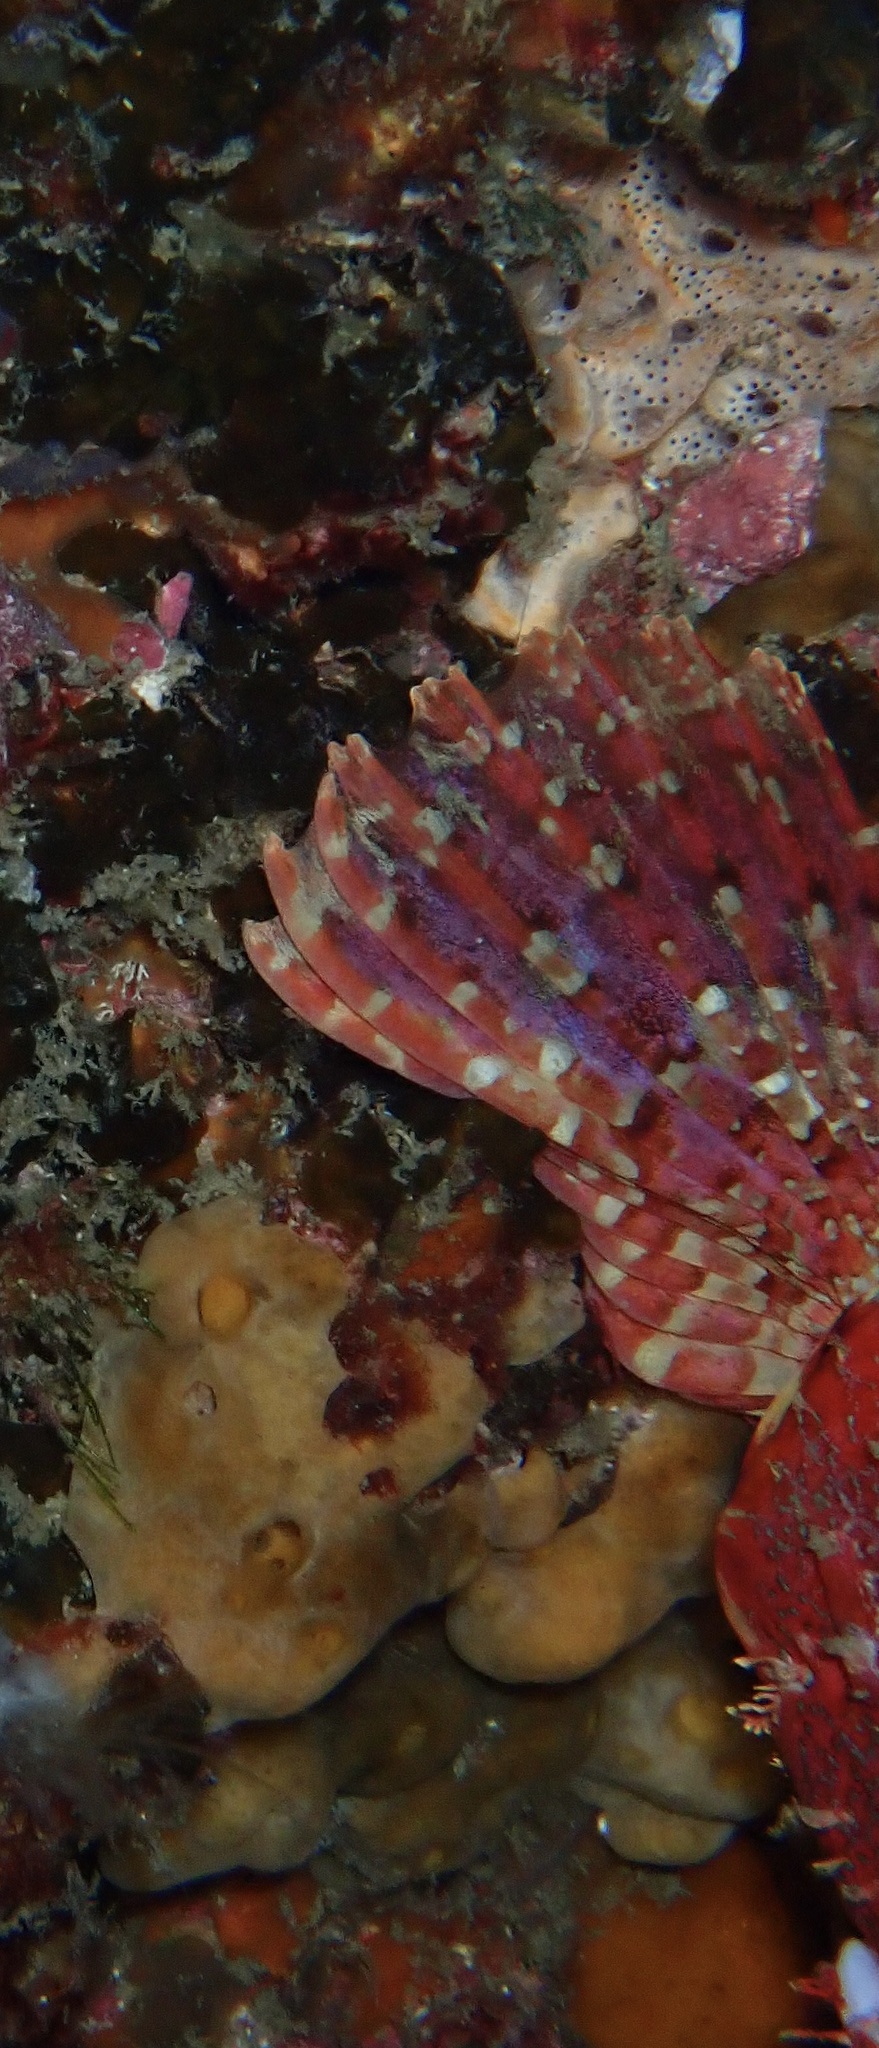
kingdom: Animalia
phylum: Chordata
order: Scorpaeniformes
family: Scorpaenidae
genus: Scorpaena
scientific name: Scorpaena jacksoniensis
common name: Eastern red scorpionfish
